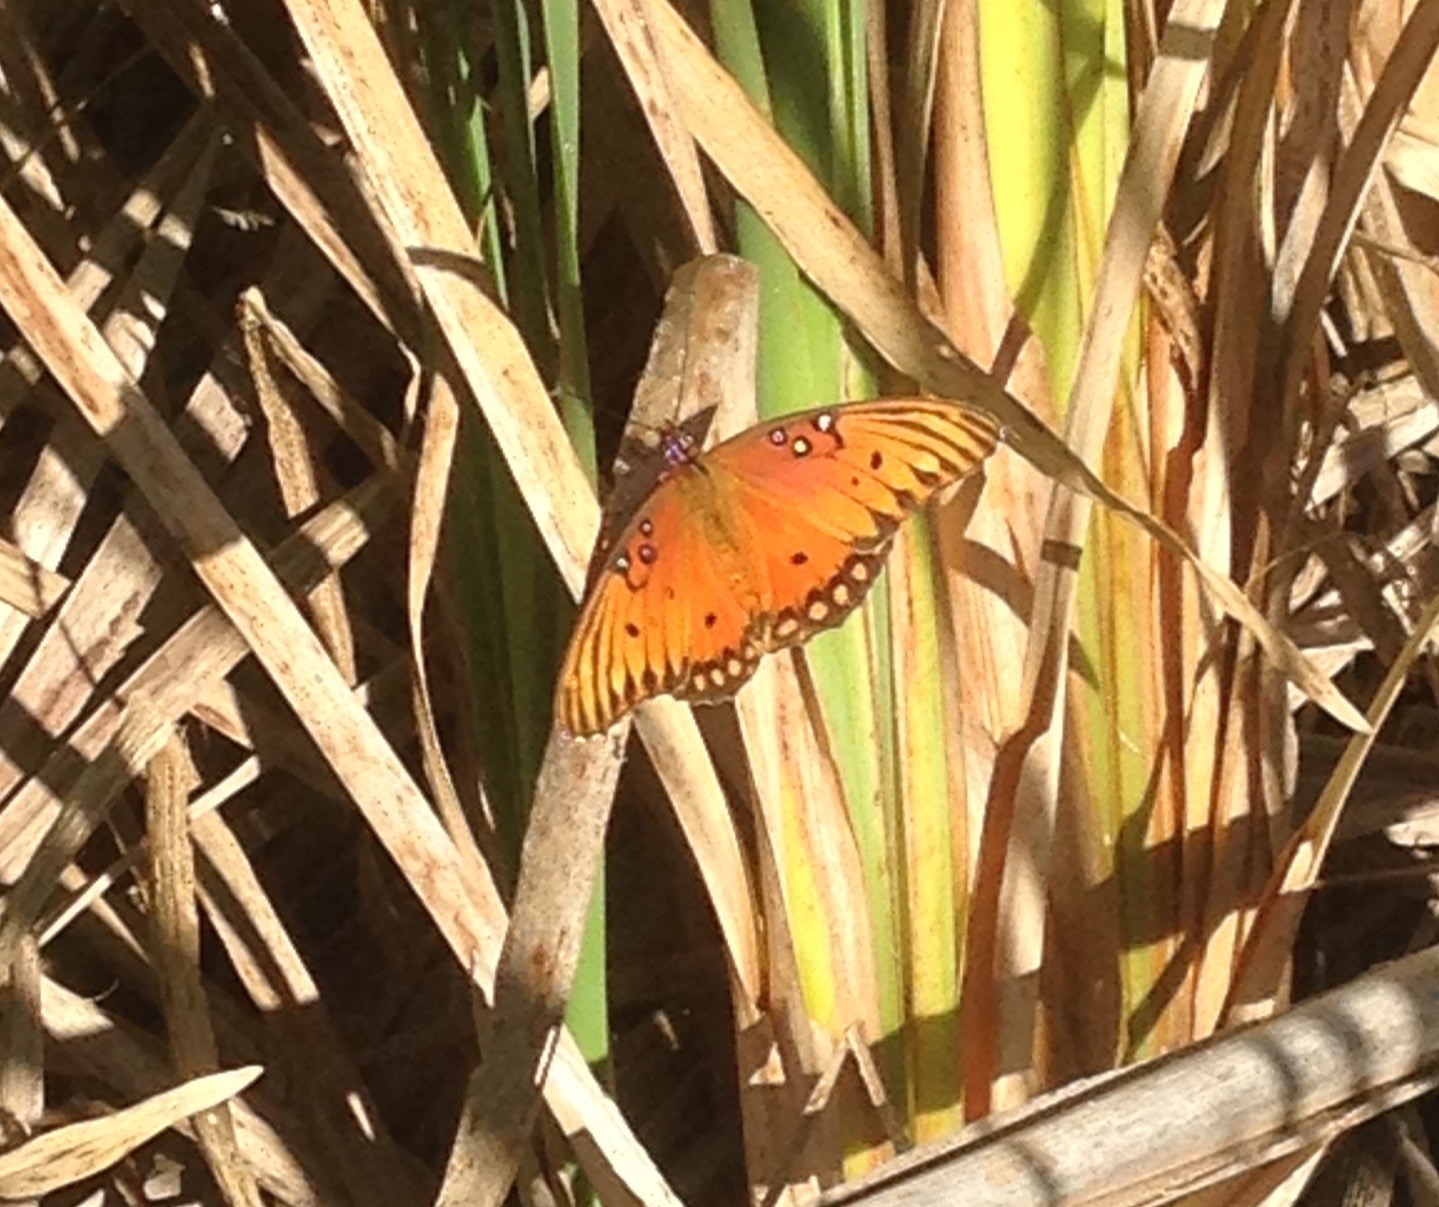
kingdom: Animalia
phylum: Arthropoda
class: Insecta
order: Lepidoptera
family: Nymphalidae
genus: Dione
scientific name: Dione vanillae
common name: Gulf fritillary
